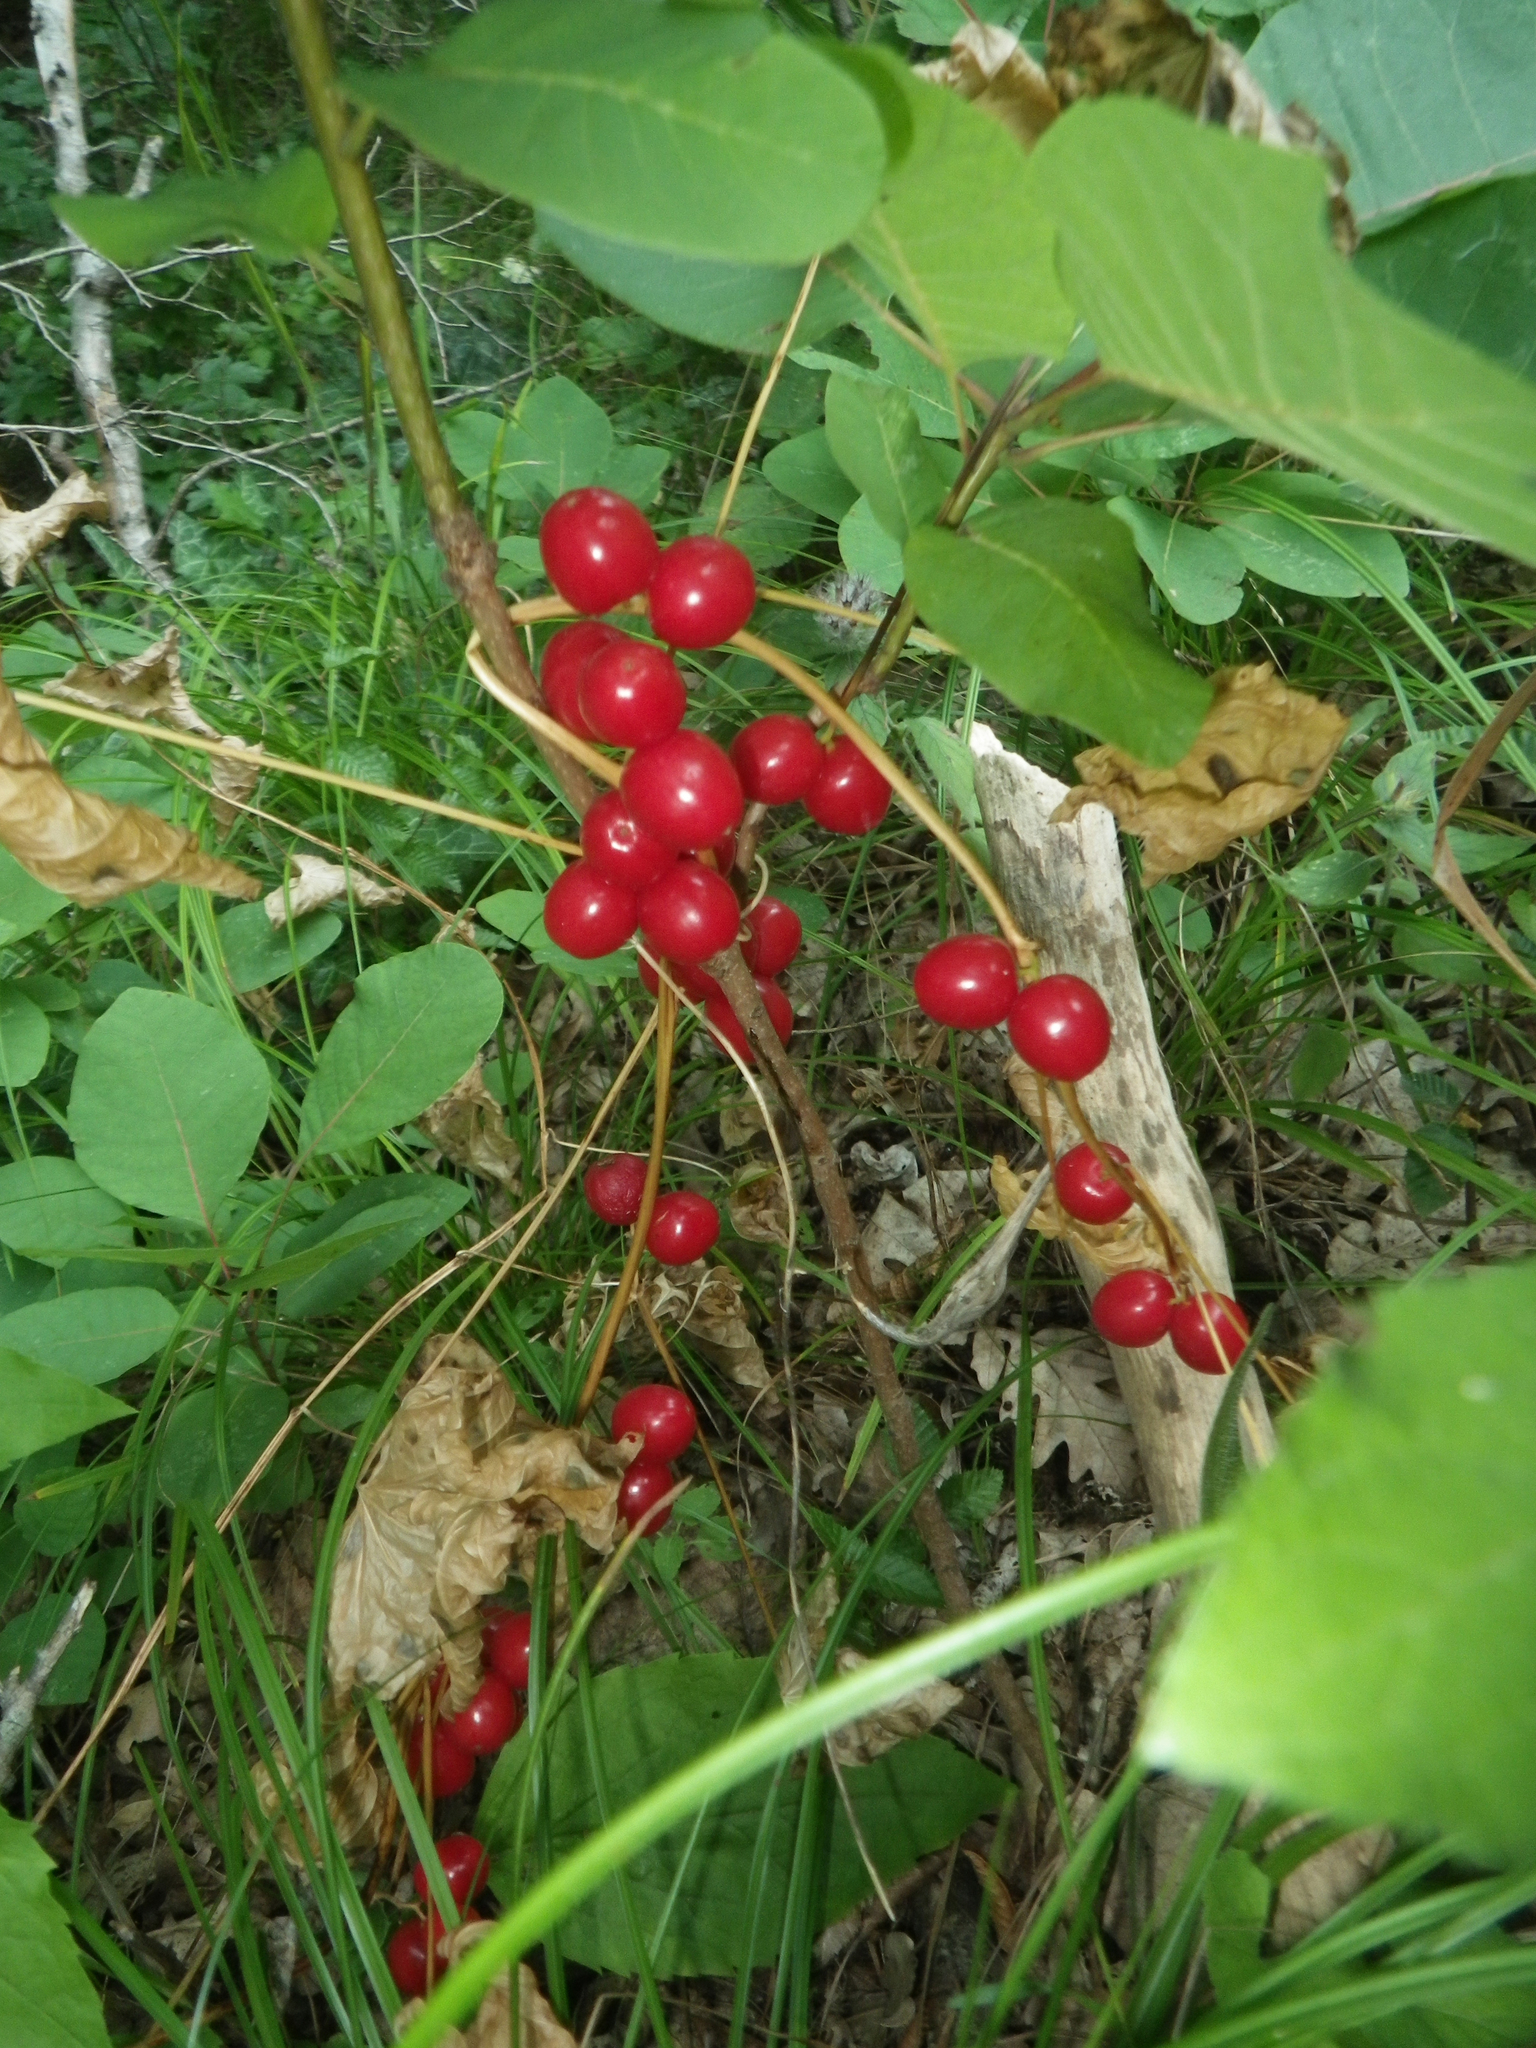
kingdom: Plantae
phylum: Tracheophyta
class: Liliopsida
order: Dioscoreales
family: Dioscoreaceae
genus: Dioscorea
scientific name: Dioscorea communis
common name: Black-bindweed
